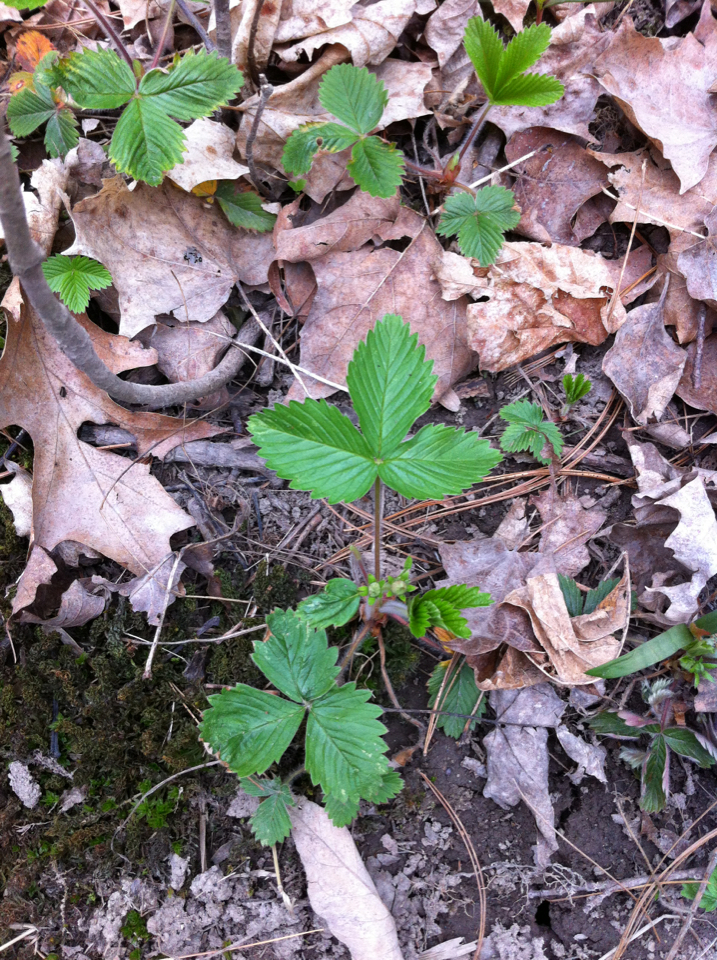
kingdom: Plantae
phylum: Tracheophyta
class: Magnoliopsida
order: Rosales
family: Rosaceae
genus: Fragaria
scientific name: Fragaria virginiana
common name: Thickleaved wild strawberry
